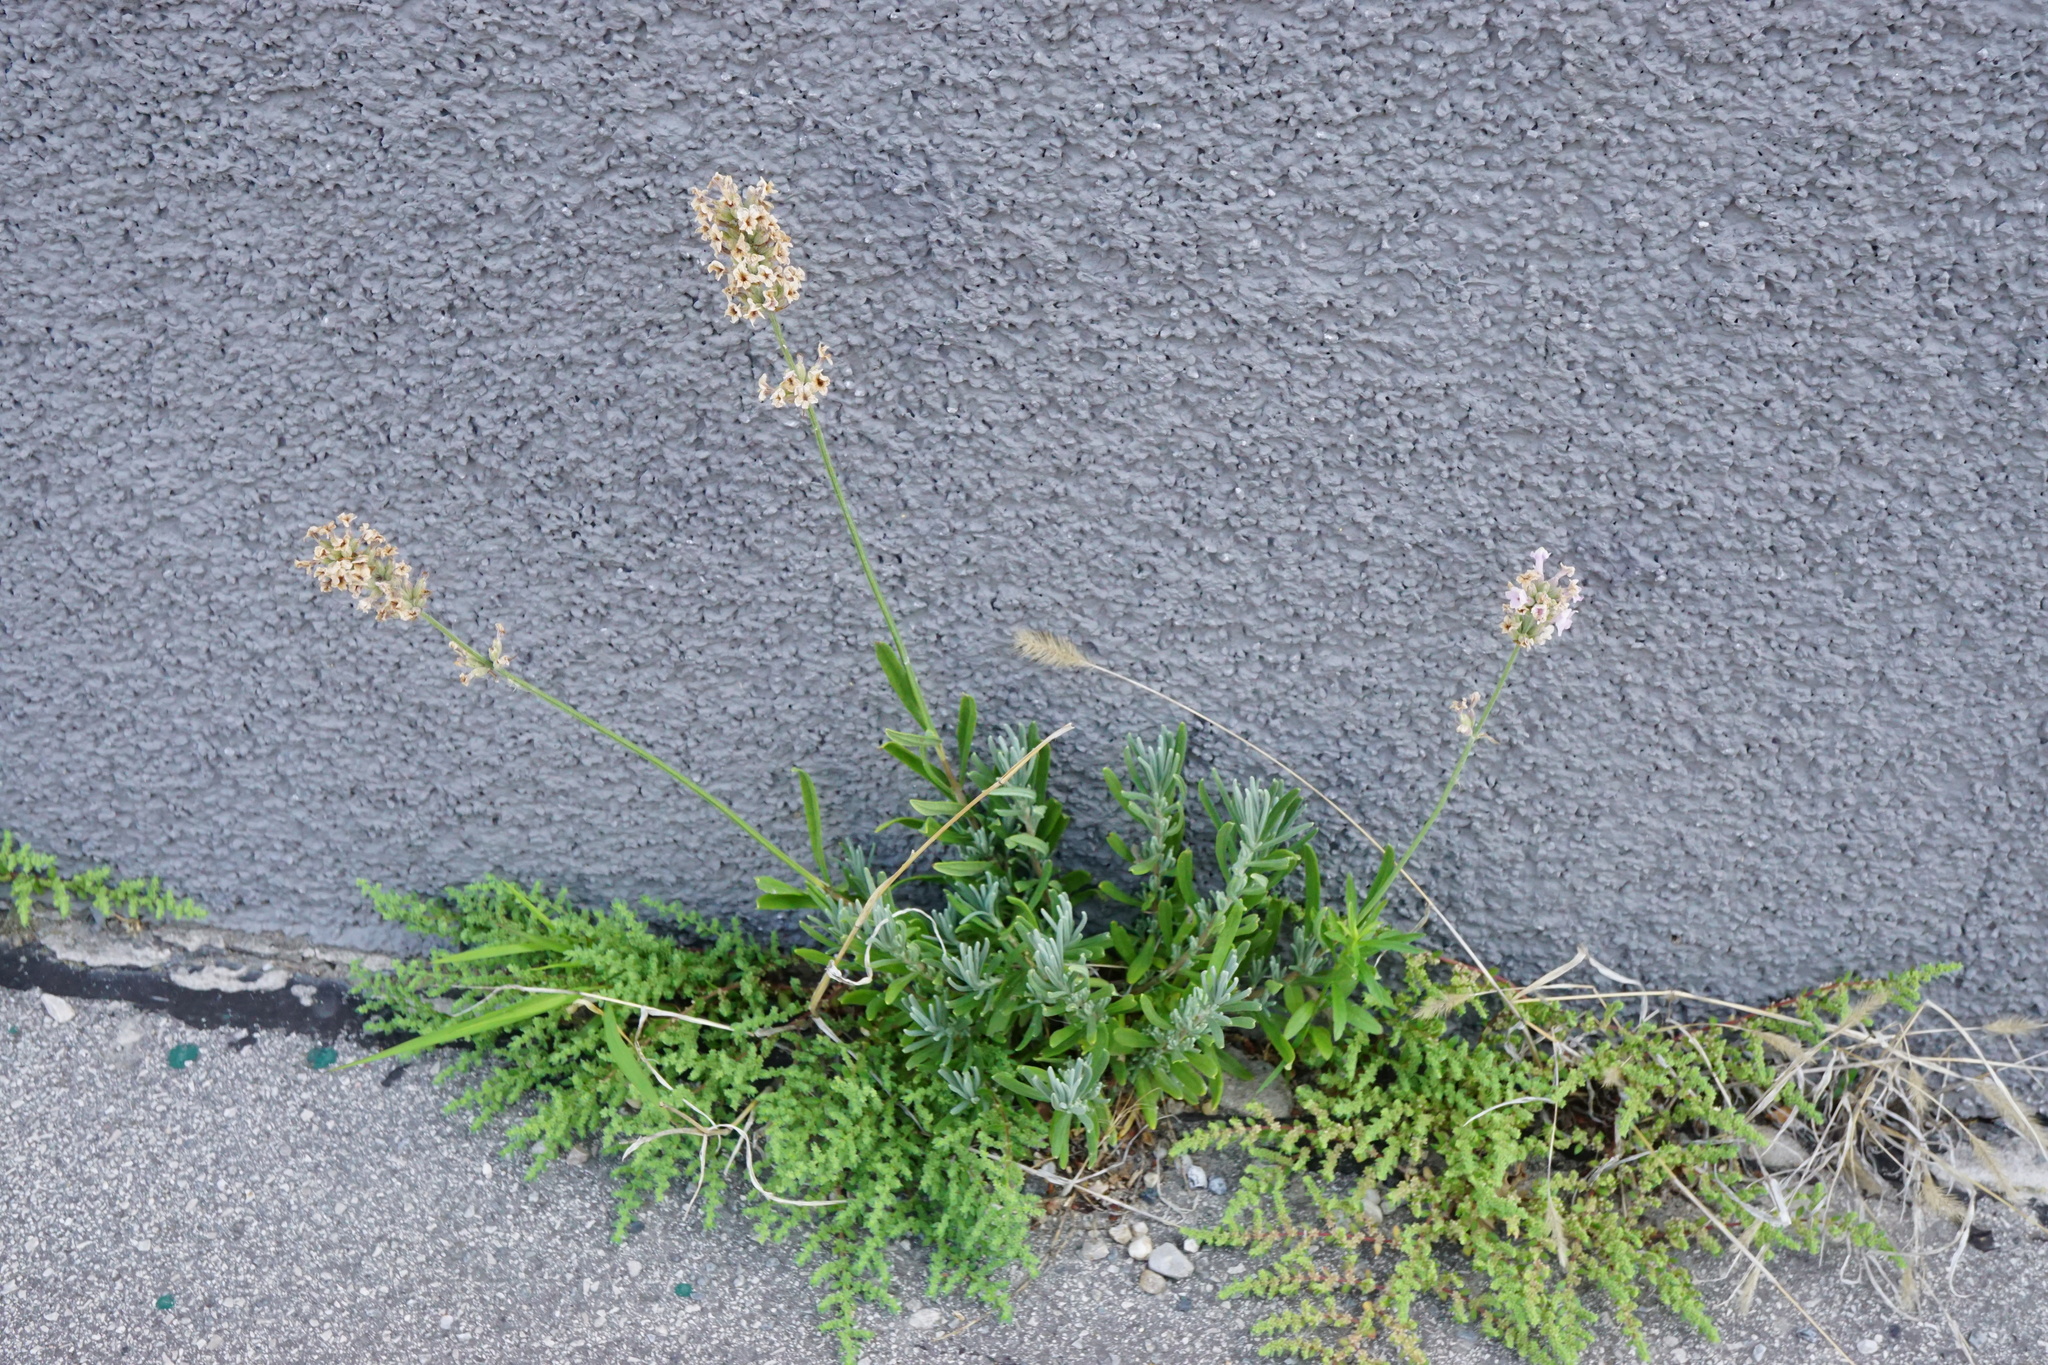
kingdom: Plantae
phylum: Tracheophyta
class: Magnoliopsida
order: Lamiales
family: Lamiaceae
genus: Lavandula
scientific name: Lavandula angustifolia
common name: Garden lavender
